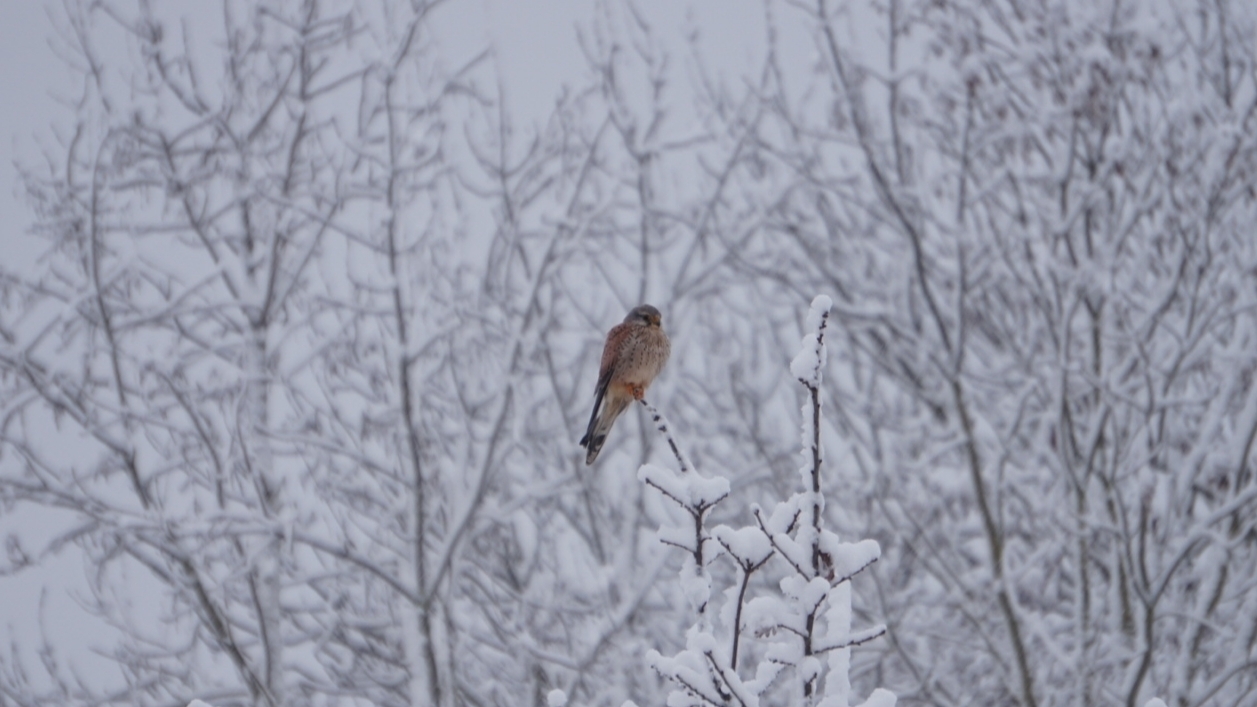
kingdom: Animalia
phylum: Chordata
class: Aves
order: Falconiformes
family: Falconidae
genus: Falco
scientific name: Falco tinnunculus
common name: Common kestrel
